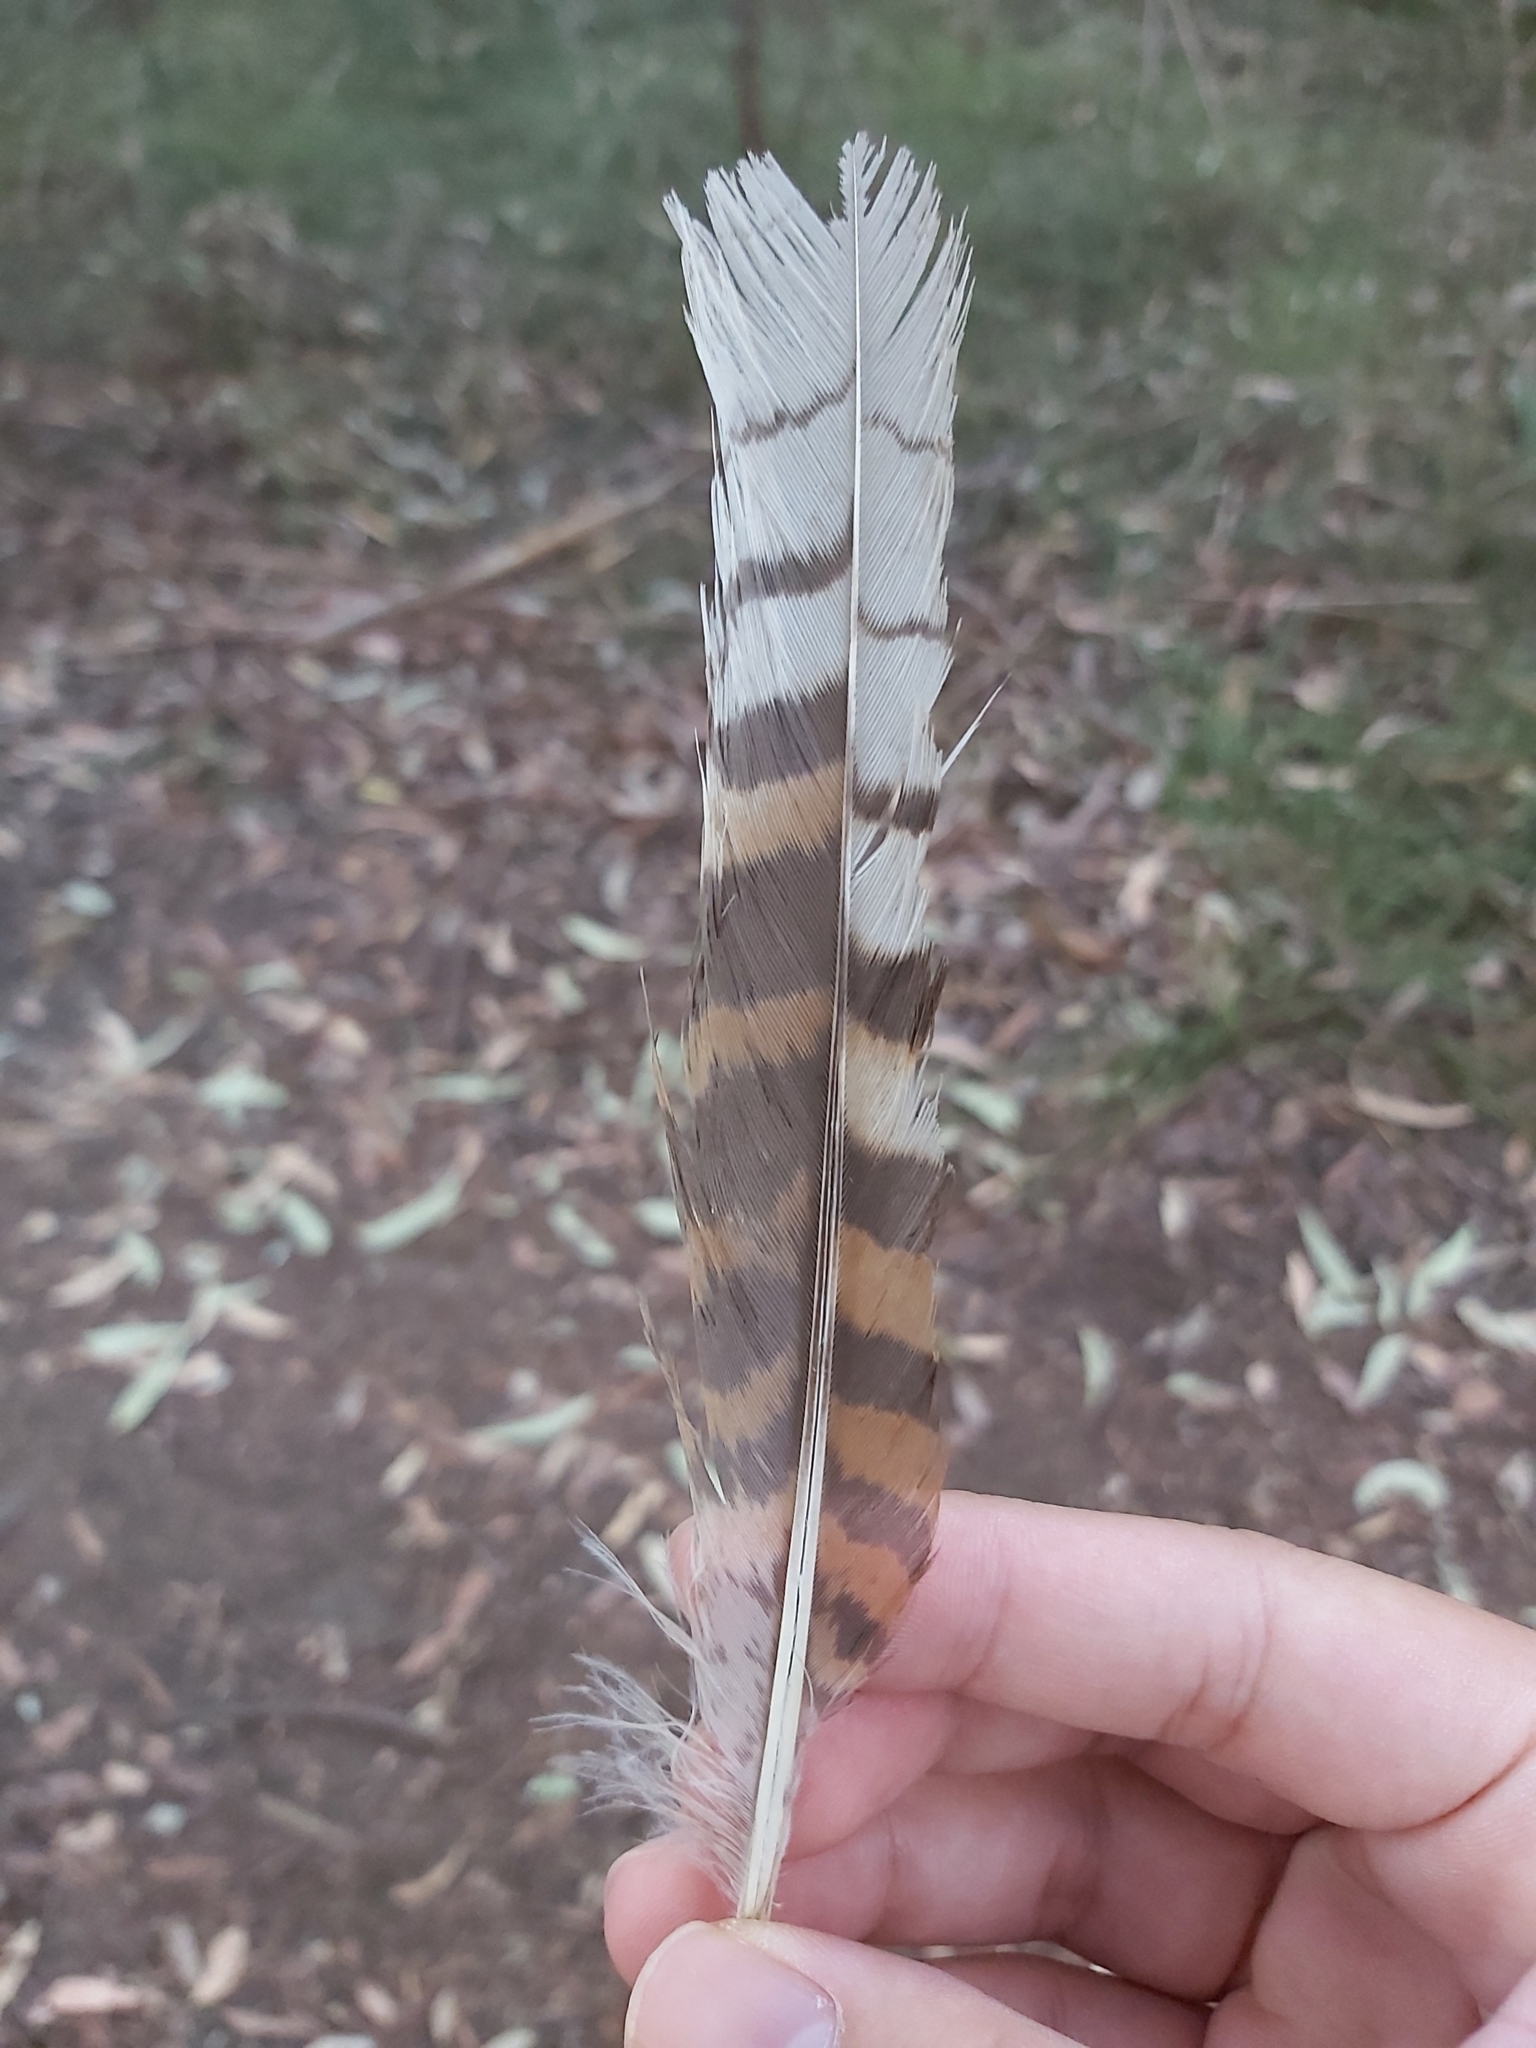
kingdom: Animalia
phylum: Chordata
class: Aves
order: Coraciiformes
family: Alcedinidae
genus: Dacelo
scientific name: Dacelo novaeguineae
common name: Laughing kookaburra
